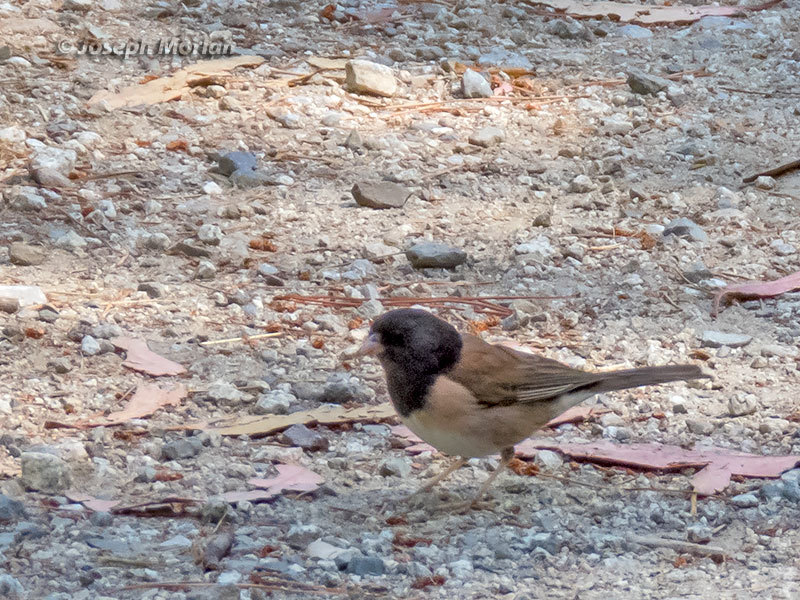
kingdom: Animalia
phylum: Chordata
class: Aves
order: Passeriformes
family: Passerellidae
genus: Junco
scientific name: Junco hyemalis
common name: Dark-eyed junco
